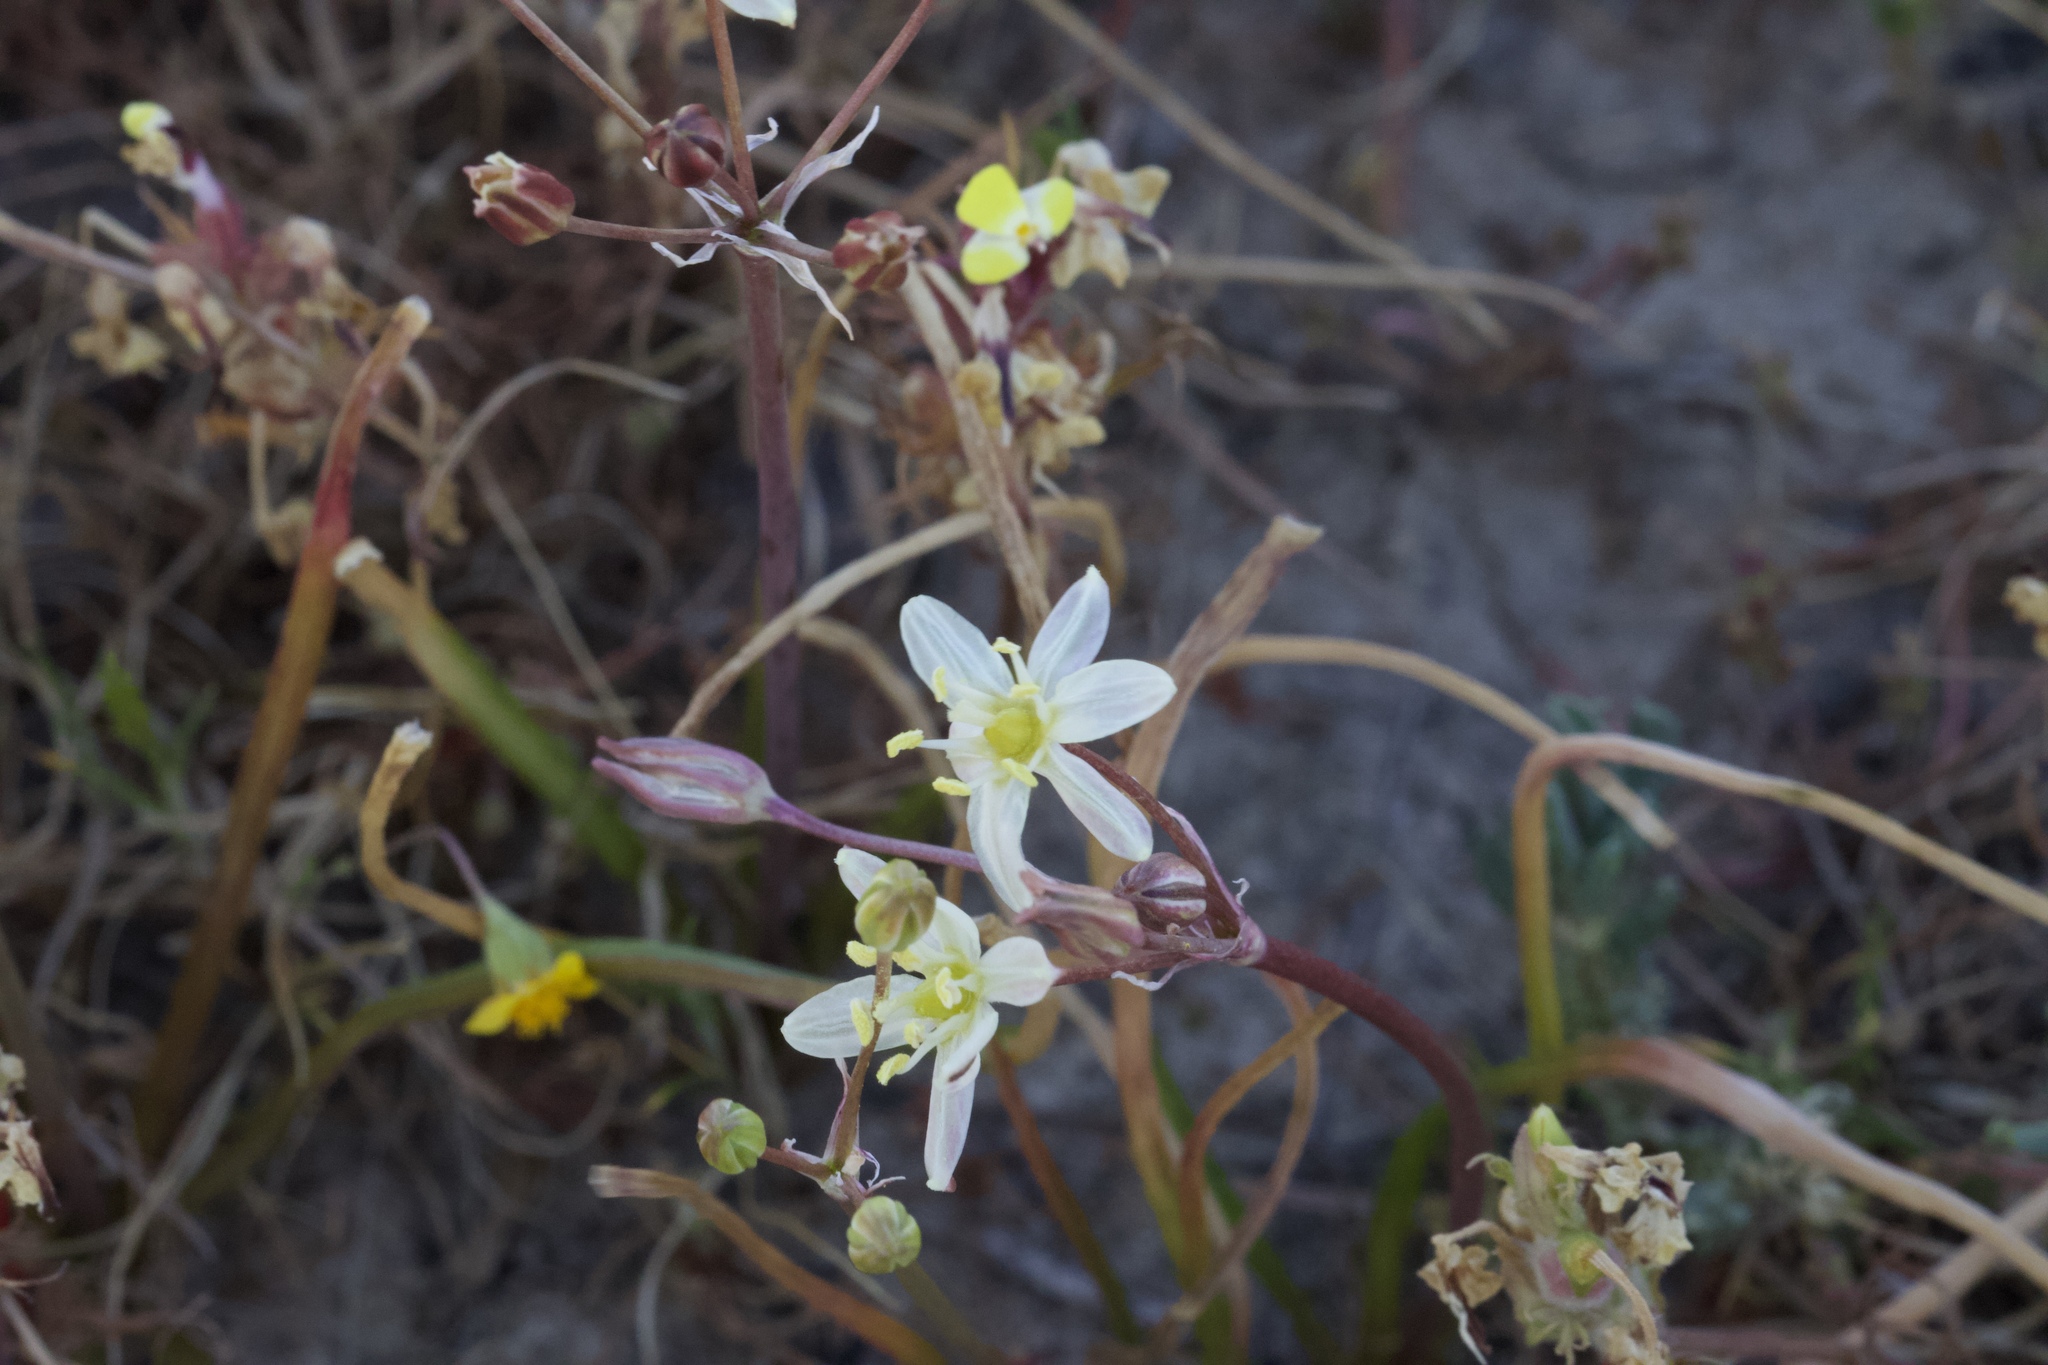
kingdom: Plantae
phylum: Tracheophyta
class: Liliopsida
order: Asparagales
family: Asparagaceae
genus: Muilla
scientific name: Muilla maritima
